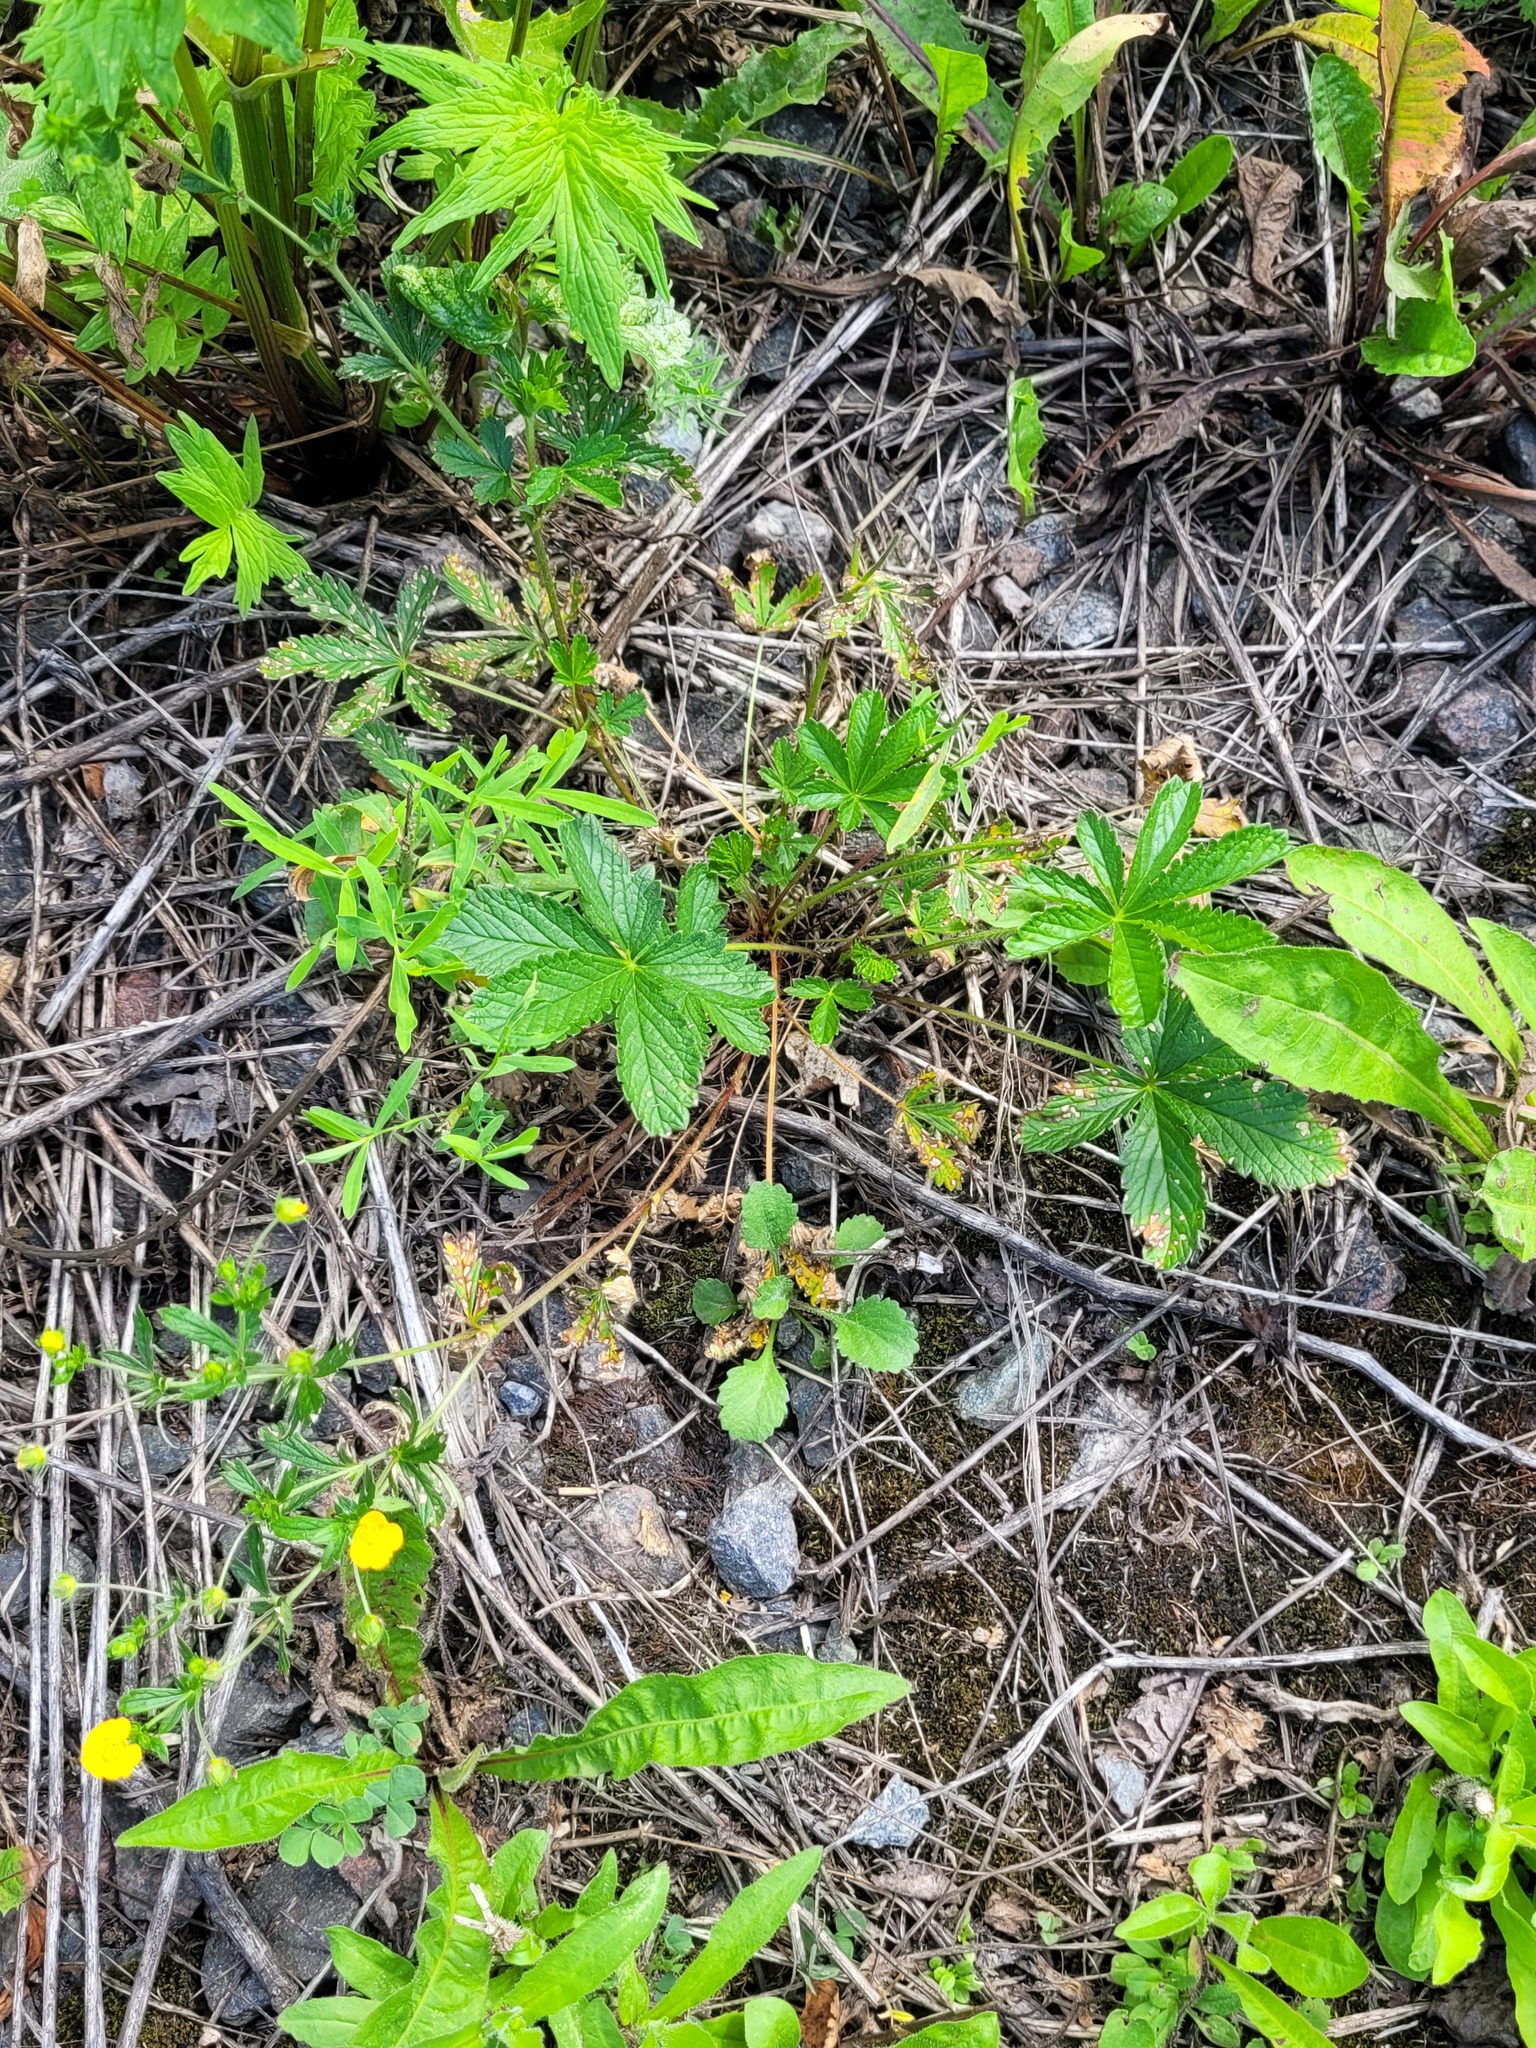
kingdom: Plantae
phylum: Tracheophyta
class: Magnoliopsida
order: Rosales
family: Rosaceae
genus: Potentilla
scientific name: Potentilla thuringiaca
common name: European cinquefoil
